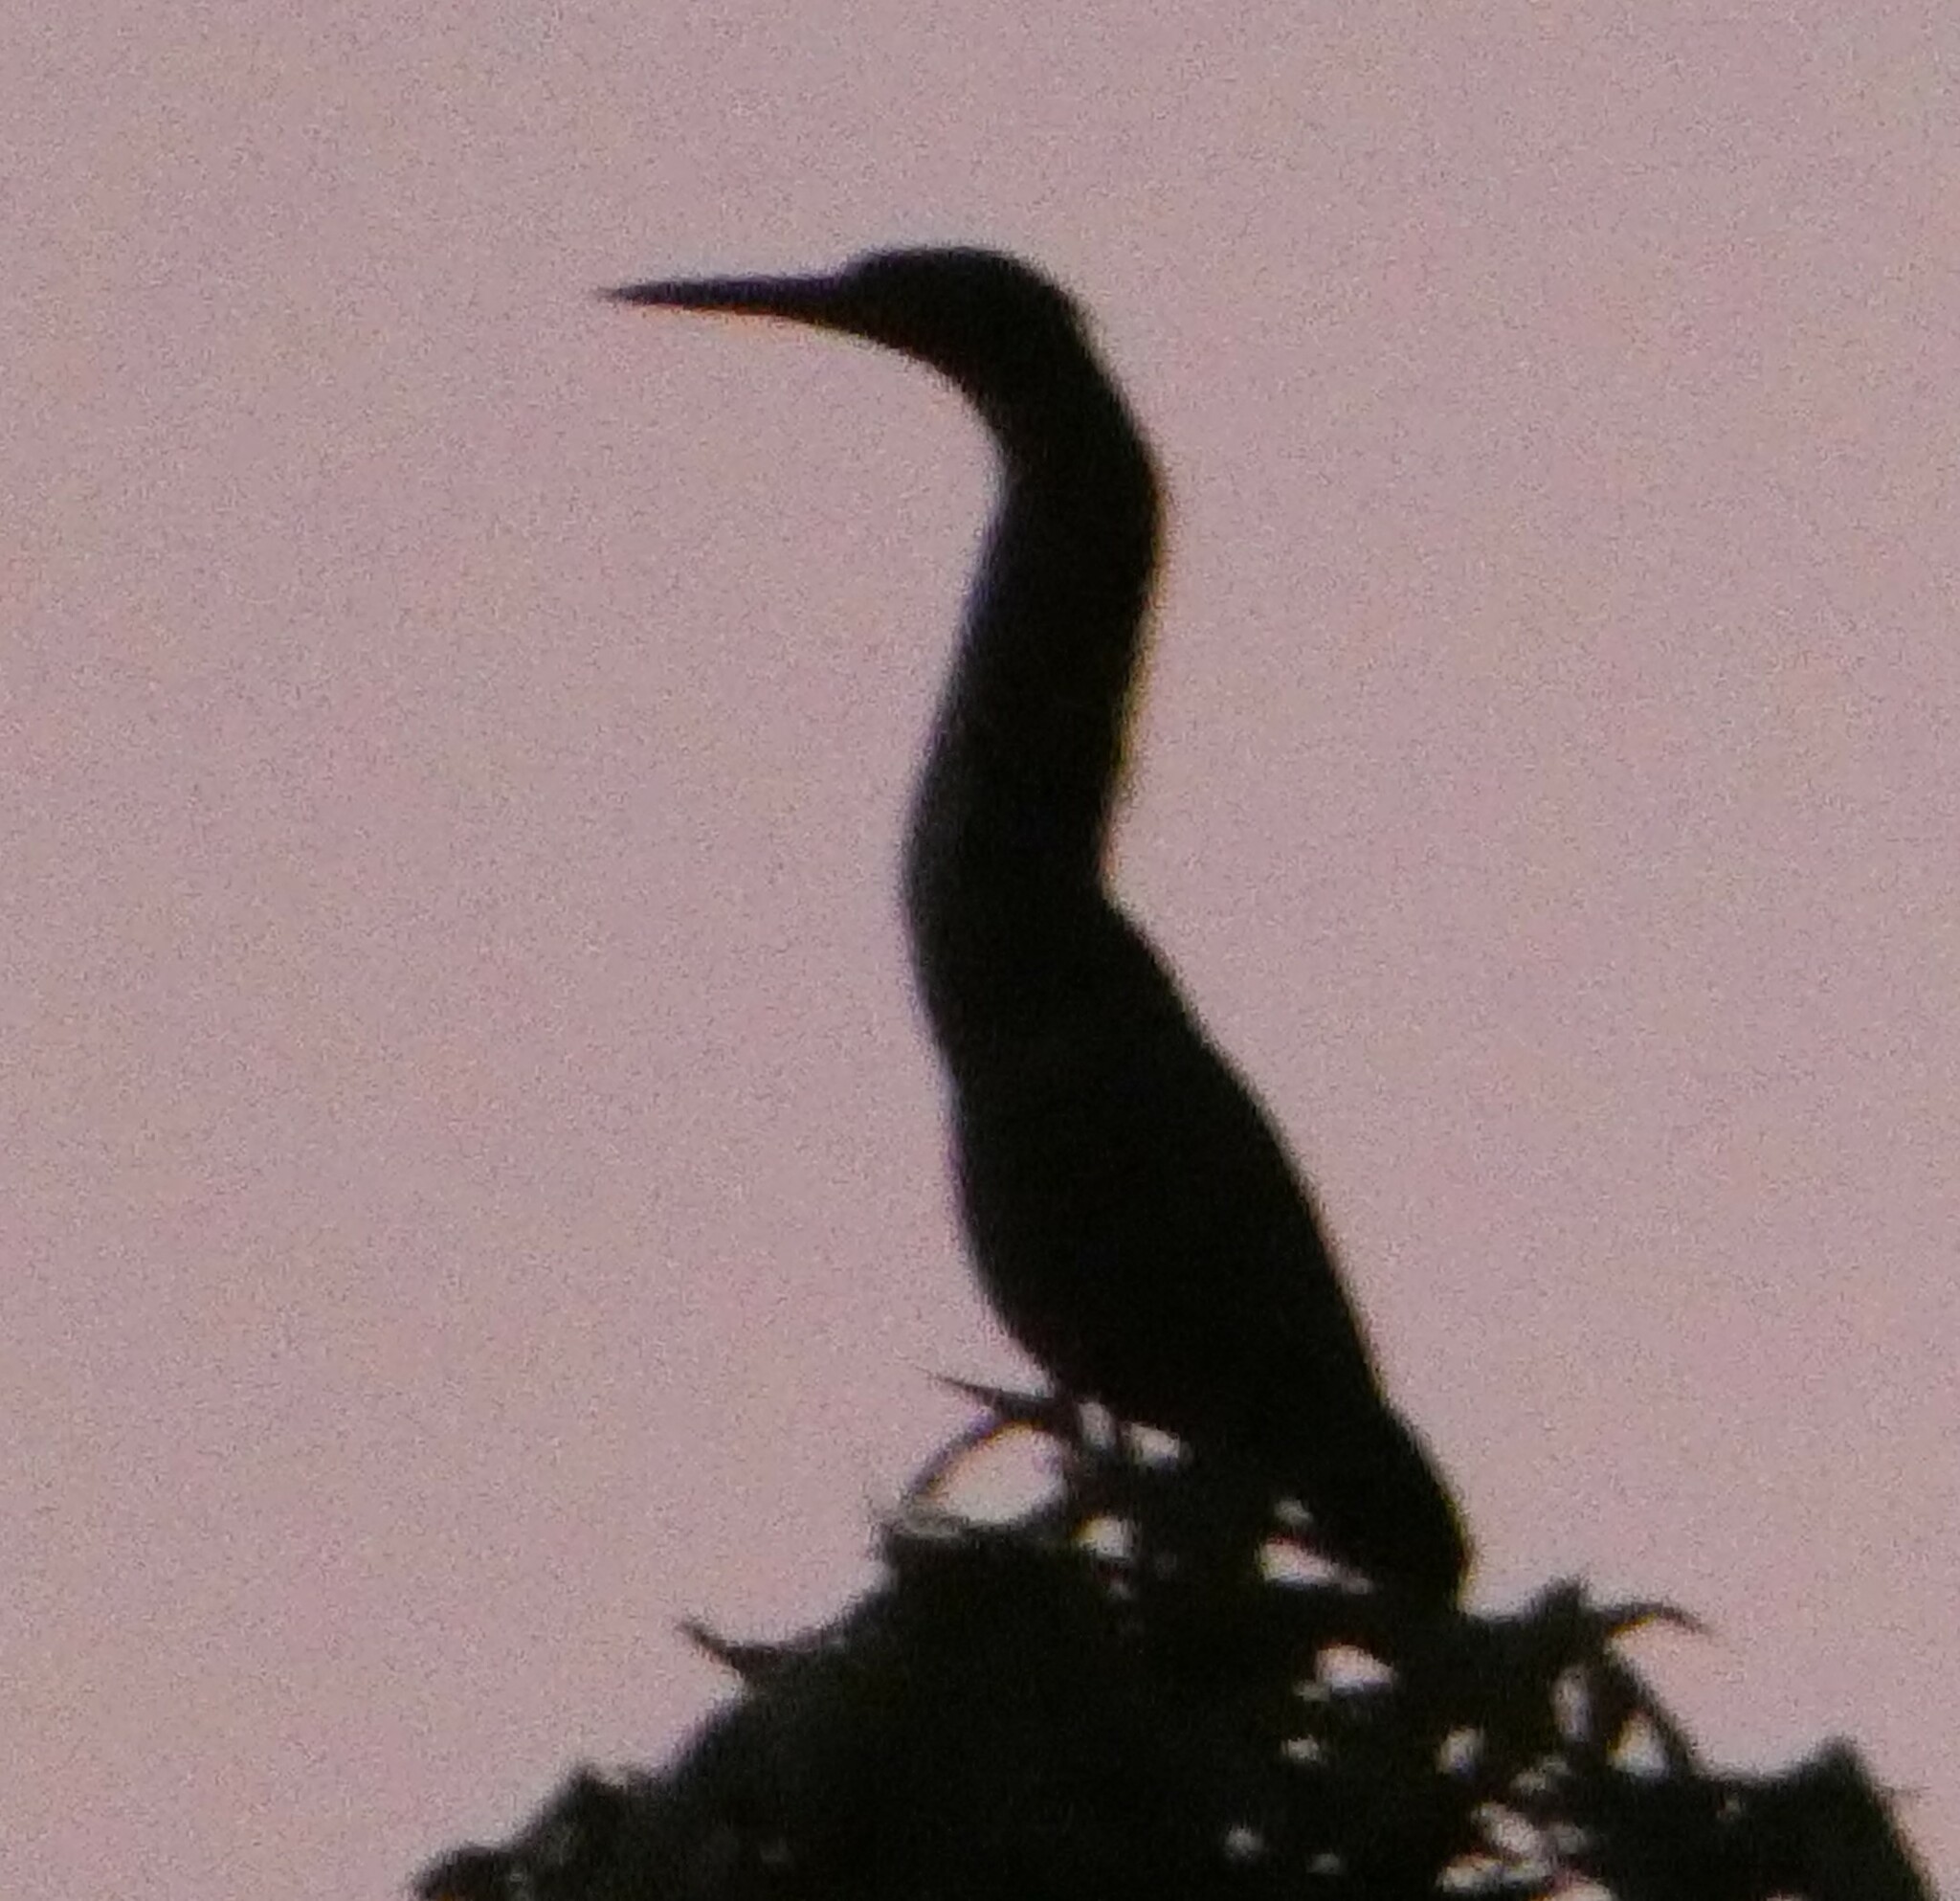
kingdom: Animalia
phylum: Chordata
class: Aves
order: Pelecaniformes
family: Ardeidae
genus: Butorides
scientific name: Butorides virescens
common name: Green heron
